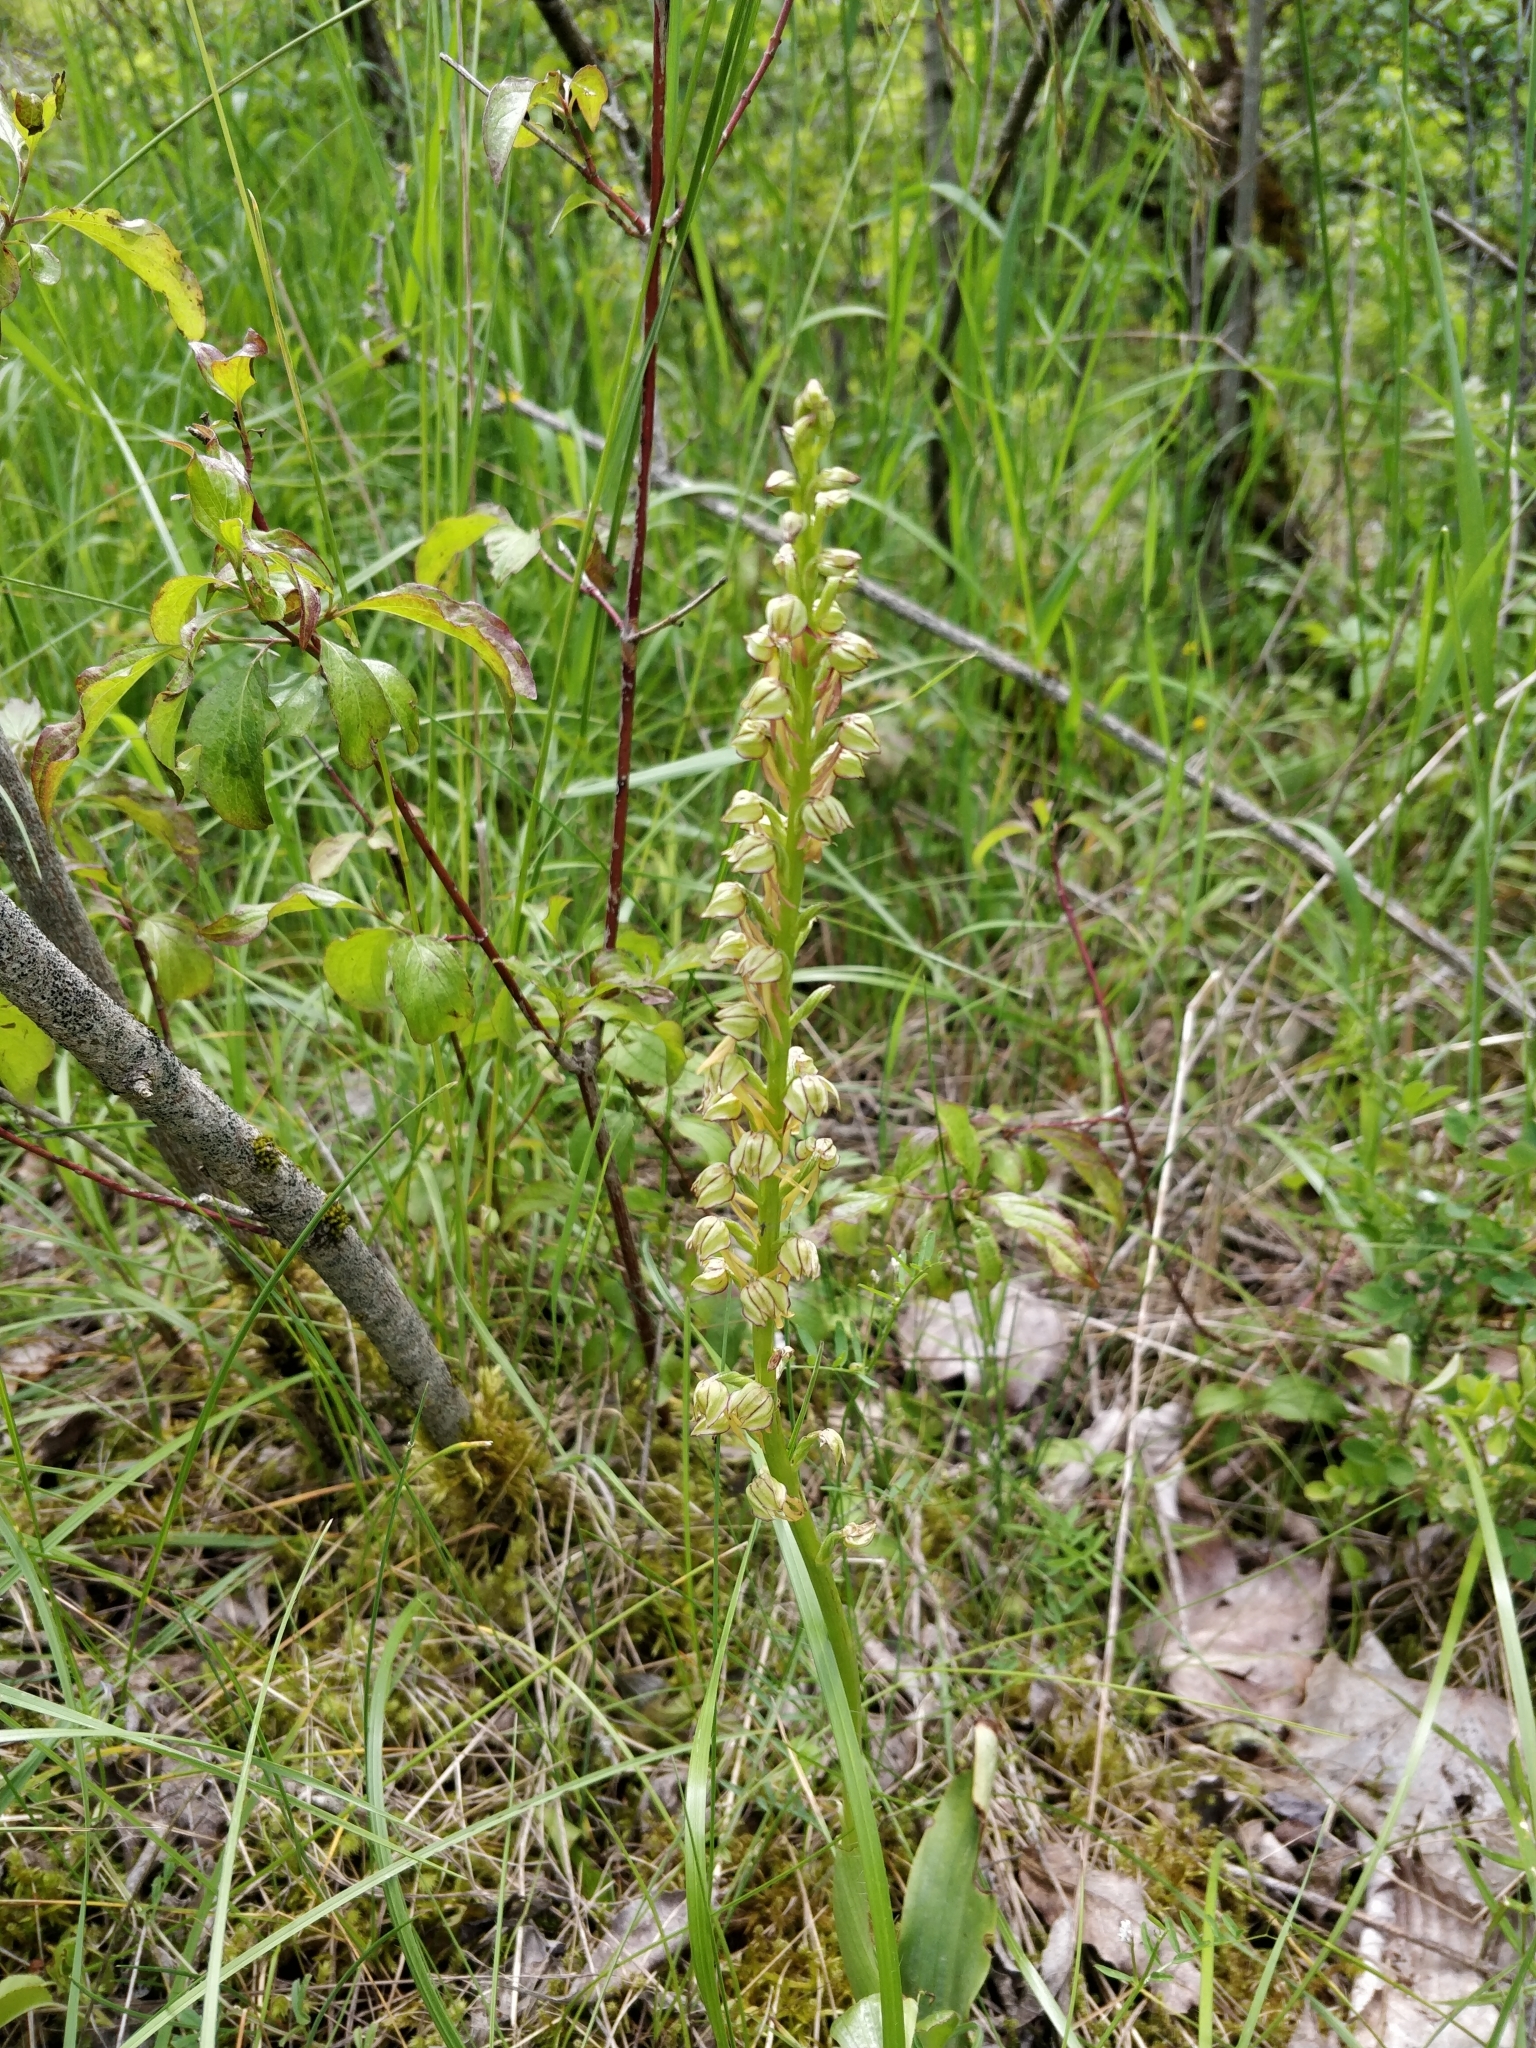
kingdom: Plantae
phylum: Tracheophyta
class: Liliopsida
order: Asparagales
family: Orchidaceae
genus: Orchis
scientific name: Orchis anthropophora
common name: Man orchid
